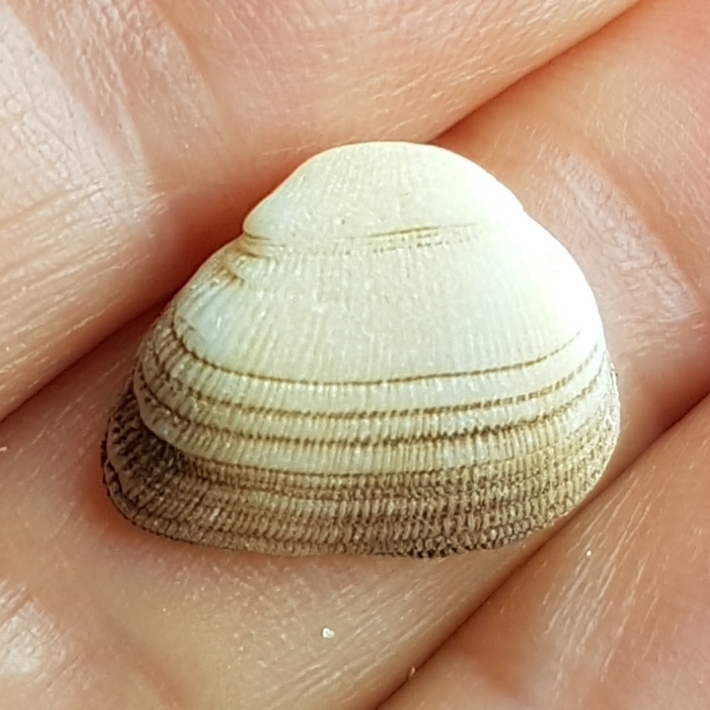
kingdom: Animalia
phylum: Mollusca
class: Bivalvia
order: Arcida
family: Noetiidae
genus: Striarca
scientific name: Striarca lactea
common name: Milky-white ark
